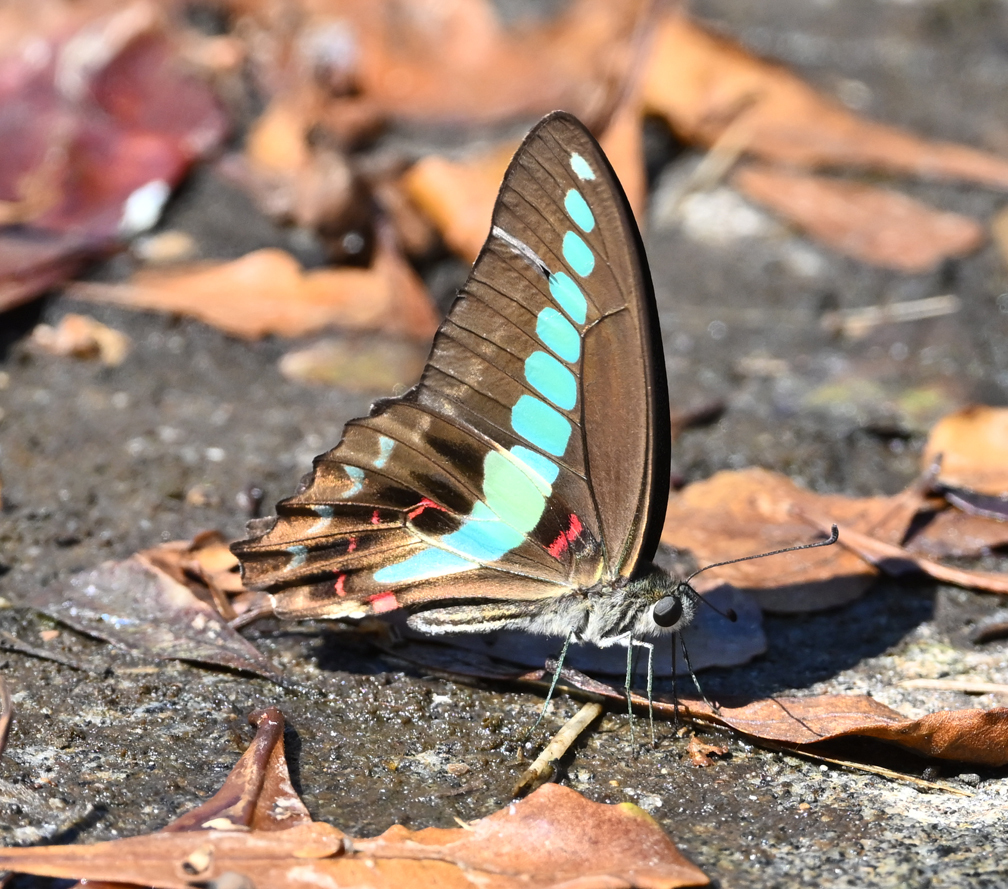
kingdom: Fungi
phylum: Ascomycota
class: Sordariomycetes
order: Microascales
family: Microascaceae
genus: Graphium
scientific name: Graphium sarpedon
